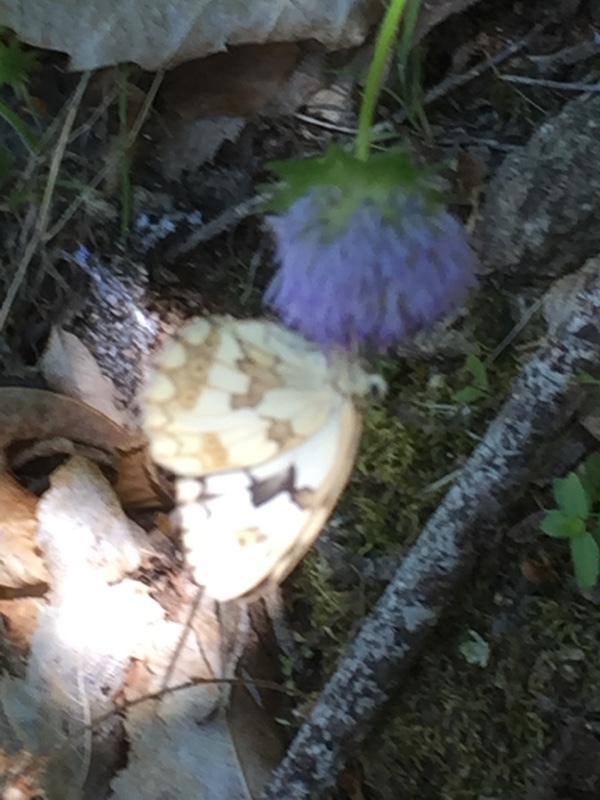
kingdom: Animalia
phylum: Arthropoda
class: Insecta
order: Lepidoptera
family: Nymphalidae
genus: Melanargia
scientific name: Melanargia lachesis
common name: Iberian marbled white
